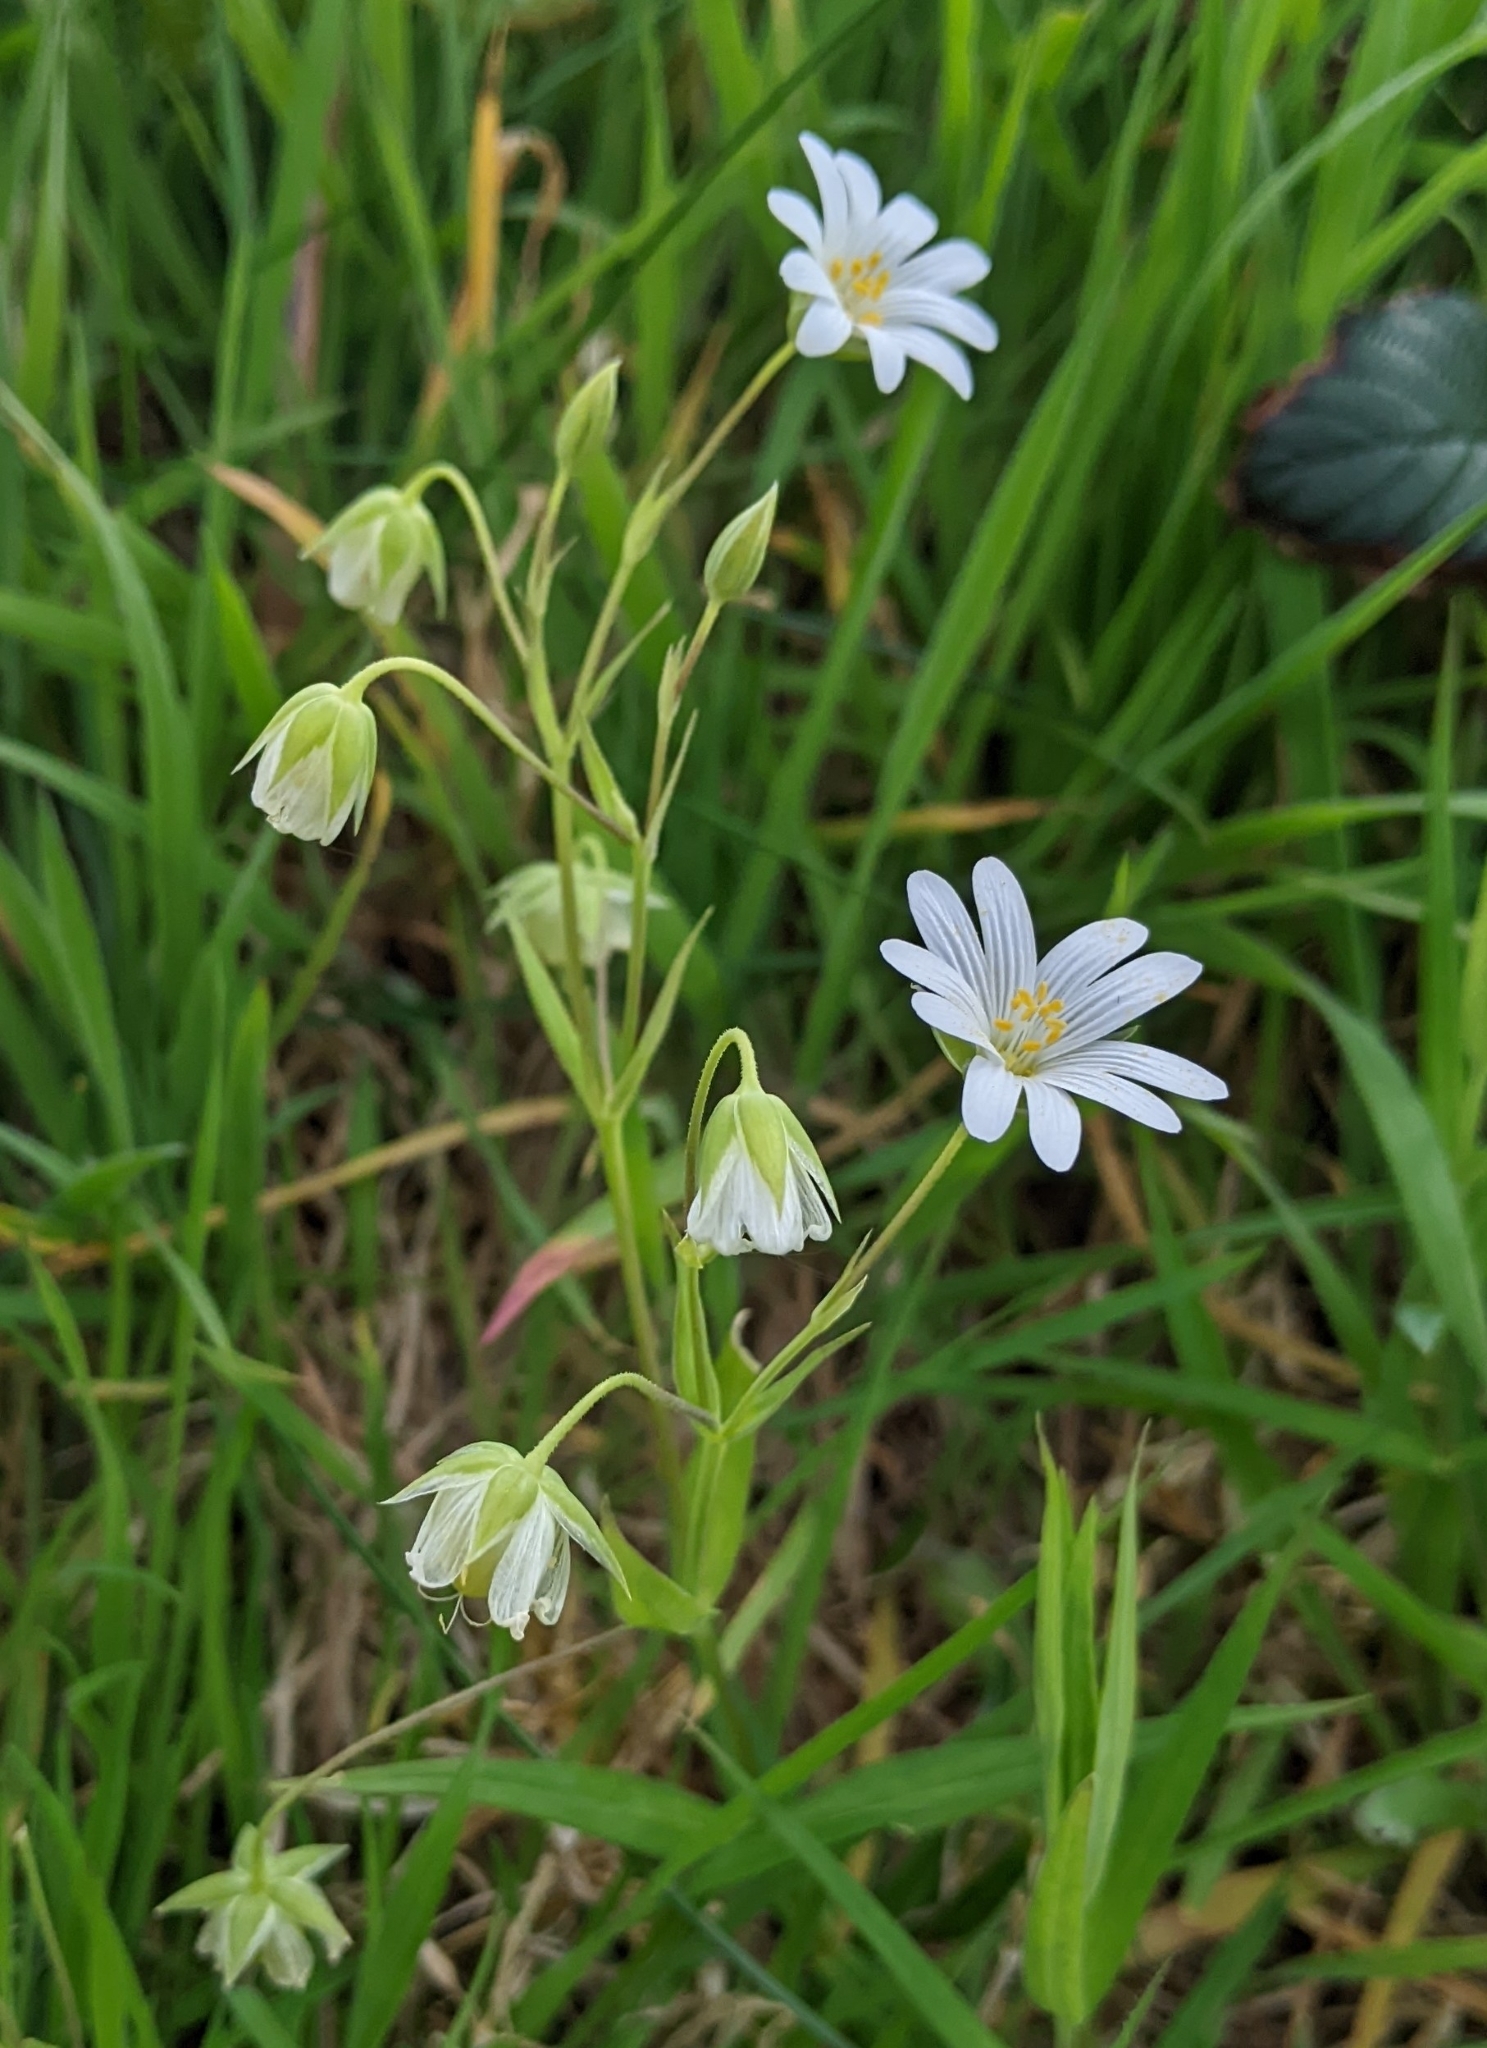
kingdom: Plantae
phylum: Tracheophyta
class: Magnoliopsida
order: Caryophyllales
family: Caryophyllaceae
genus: Rabelera
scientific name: Rabelera holostea
